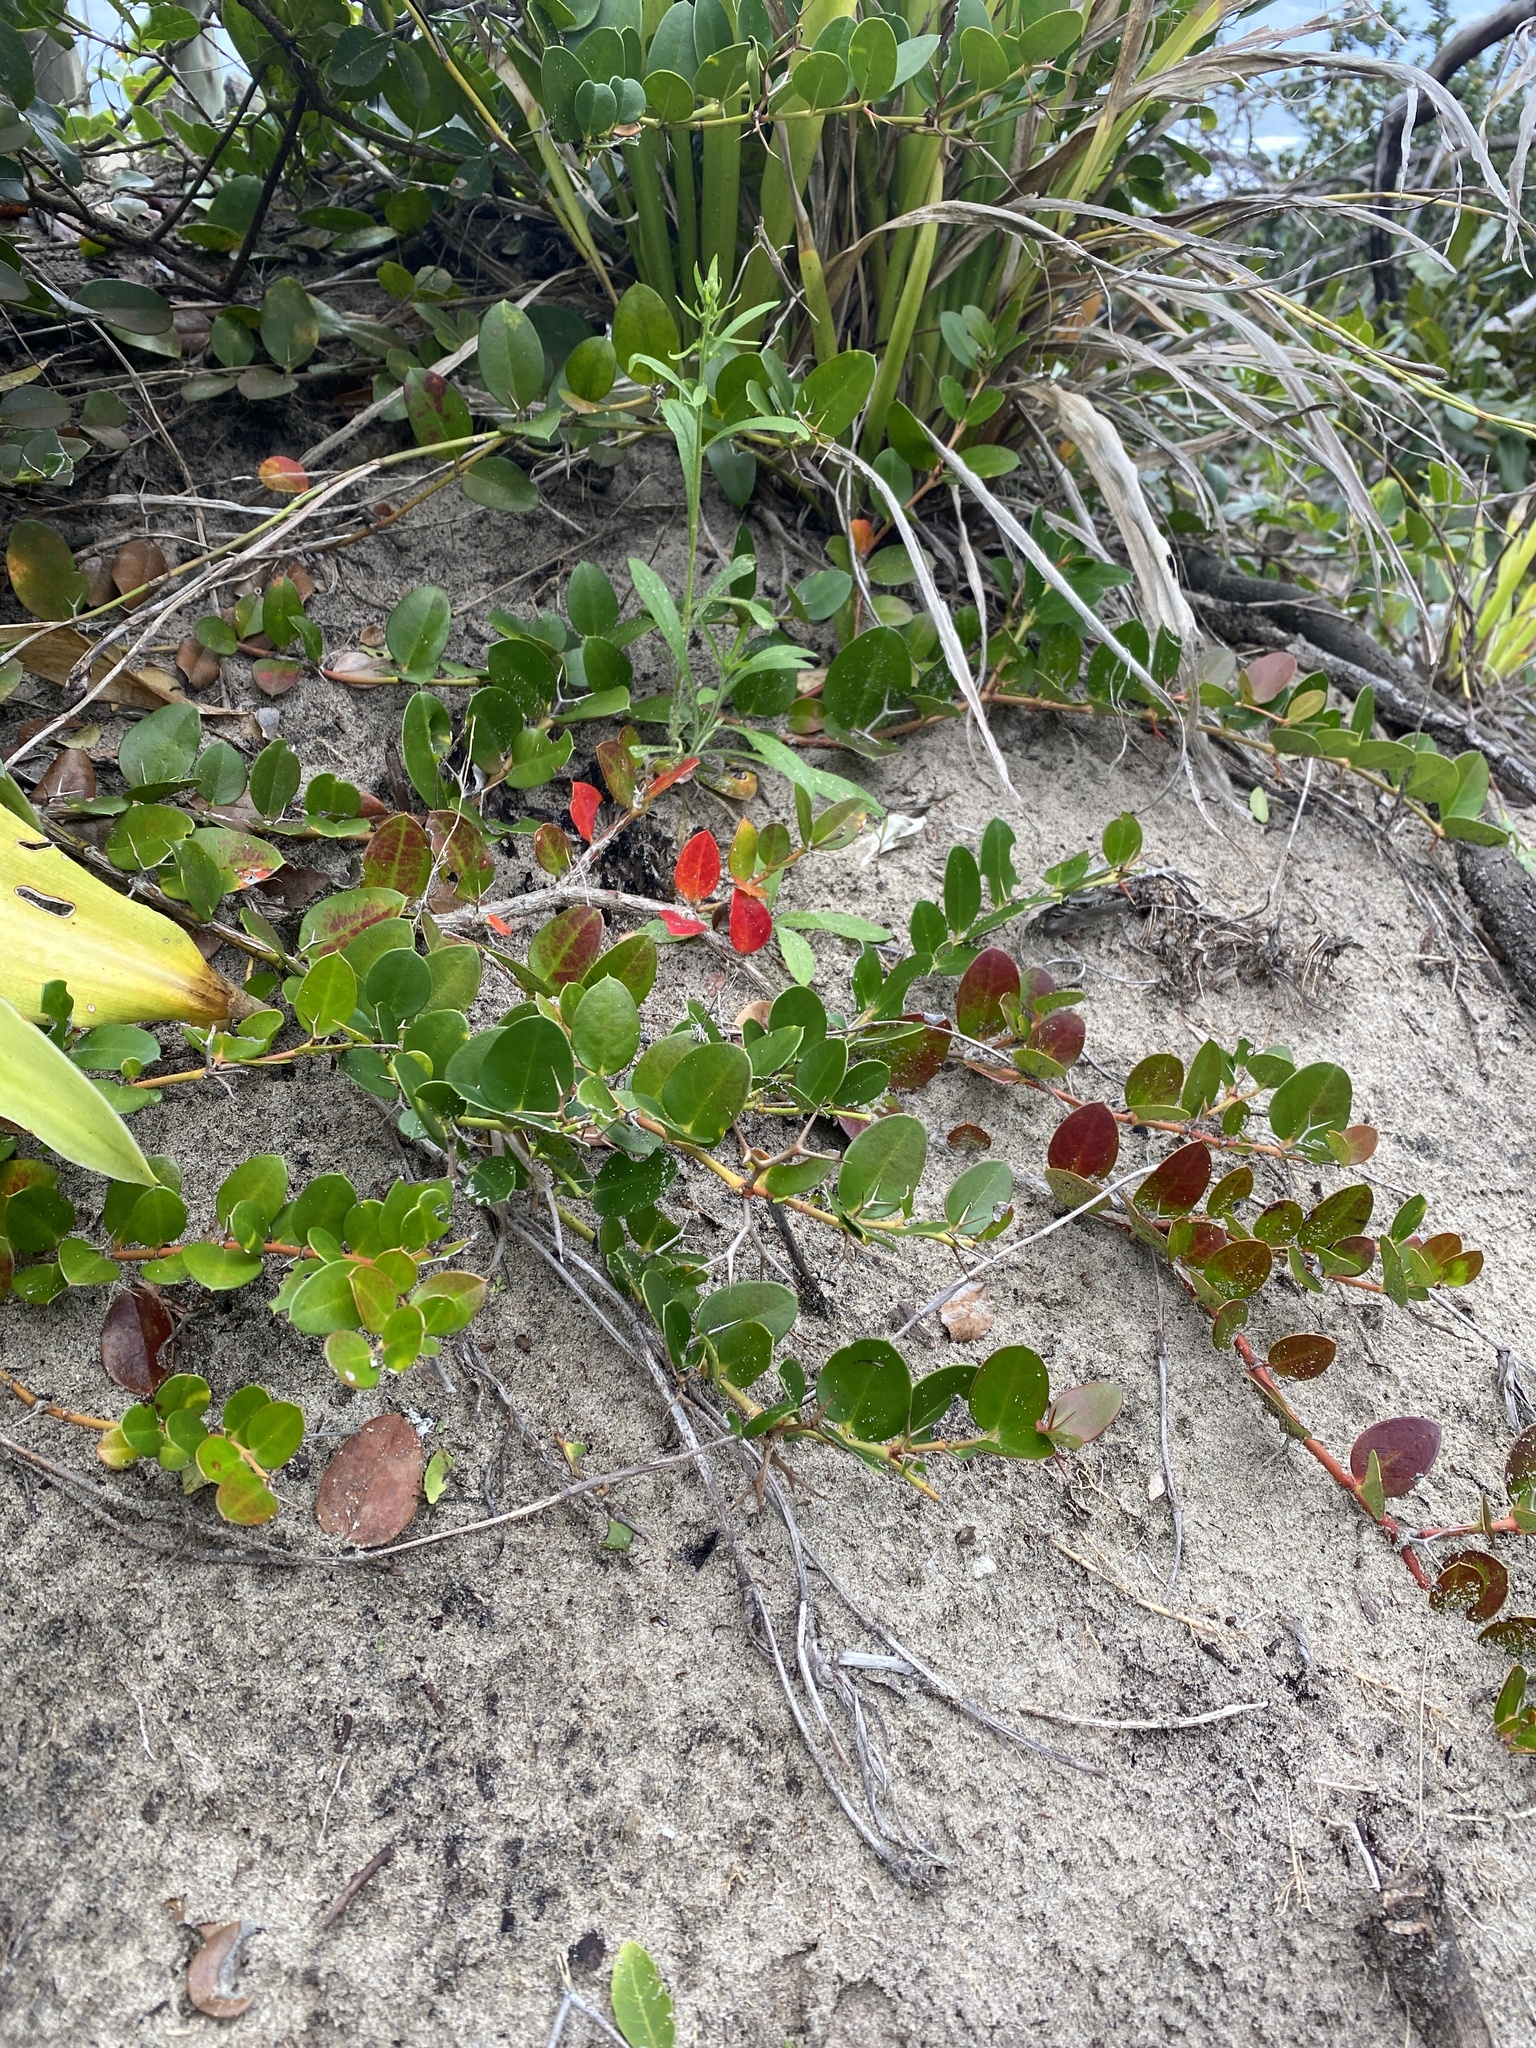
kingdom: Plantae
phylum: Tracheophyta
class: Magnoliopsida
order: Gentianales
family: Apocynaceae
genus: Carissa
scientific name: Carissa macrocarpa
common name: Natal plum
